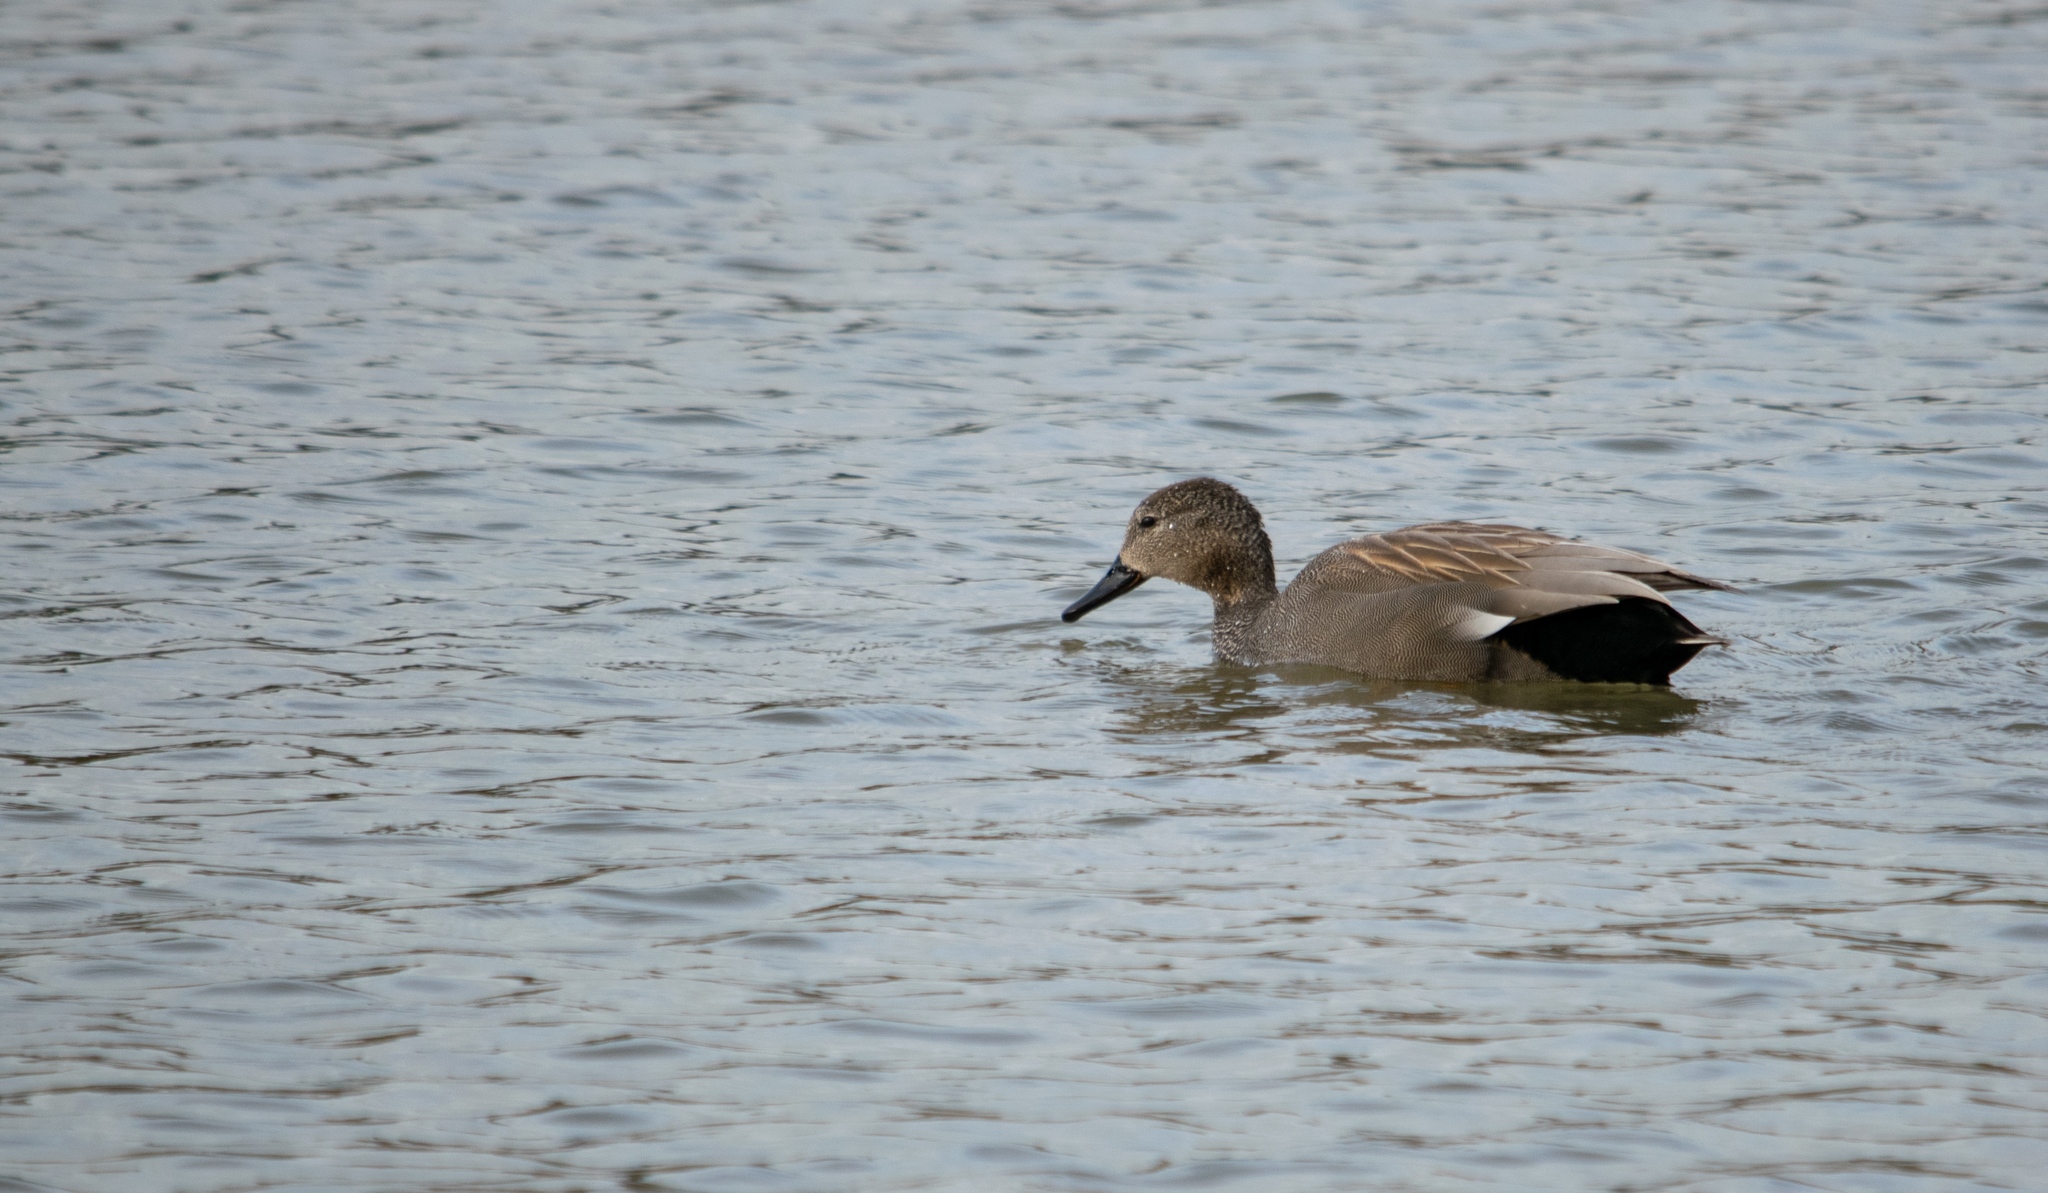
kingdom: Animalia
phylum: Chordata
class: Aves
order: Anseriformes
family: Anatidae
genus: Mareca
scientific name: Mareca strepera
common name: Gadwall
